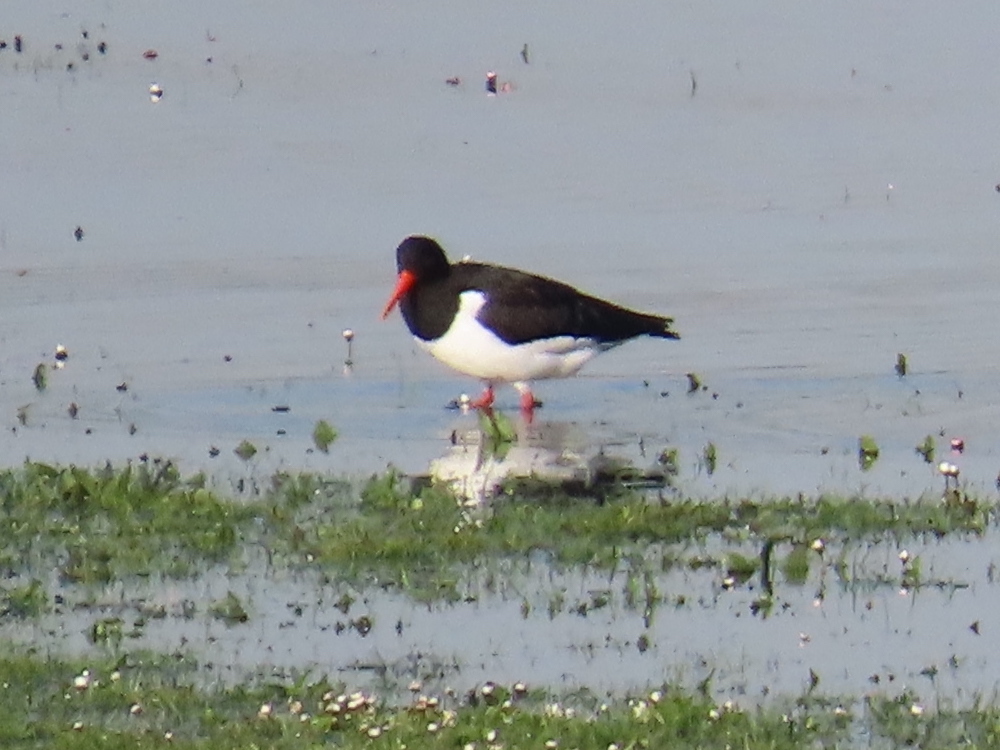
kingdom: Animalia
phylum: Chordata
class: Aves
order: Charadriiformes
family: Haematopodidae
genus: Haematopus
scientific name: Haematopus ostralegus
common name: Eurasian oystercatcher
